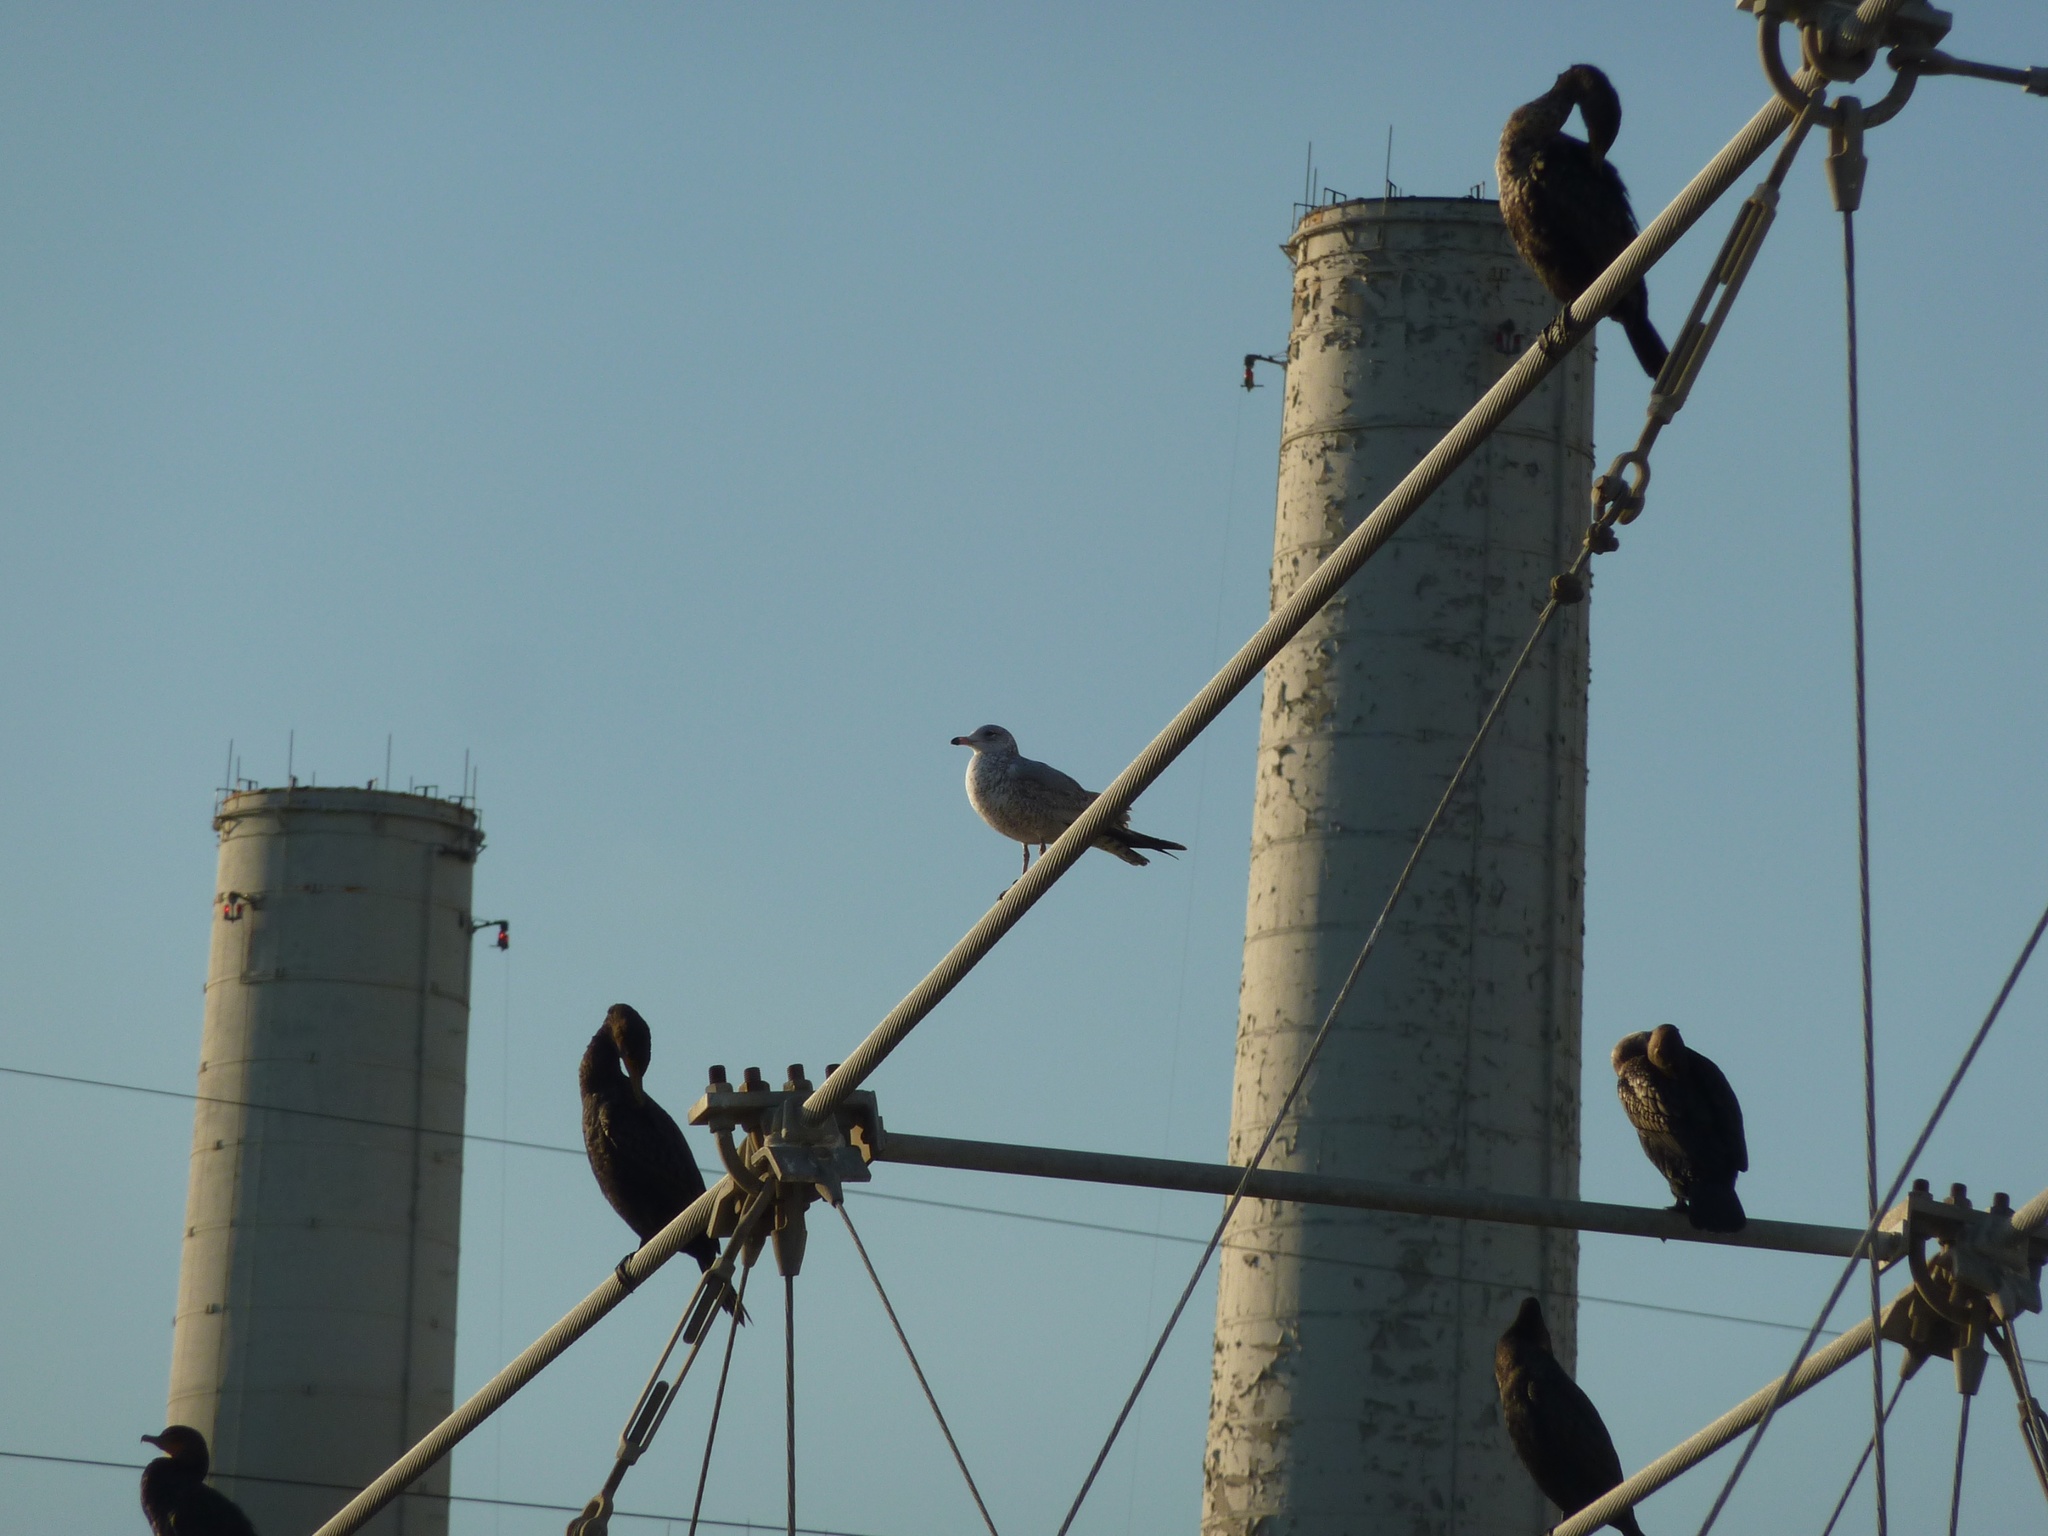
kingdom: Animalia
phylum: Chordata
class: Aves
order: Charadriiformes
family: Laridae
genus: Larus
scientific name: Larus delawarensis
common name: Ring-billed gull
